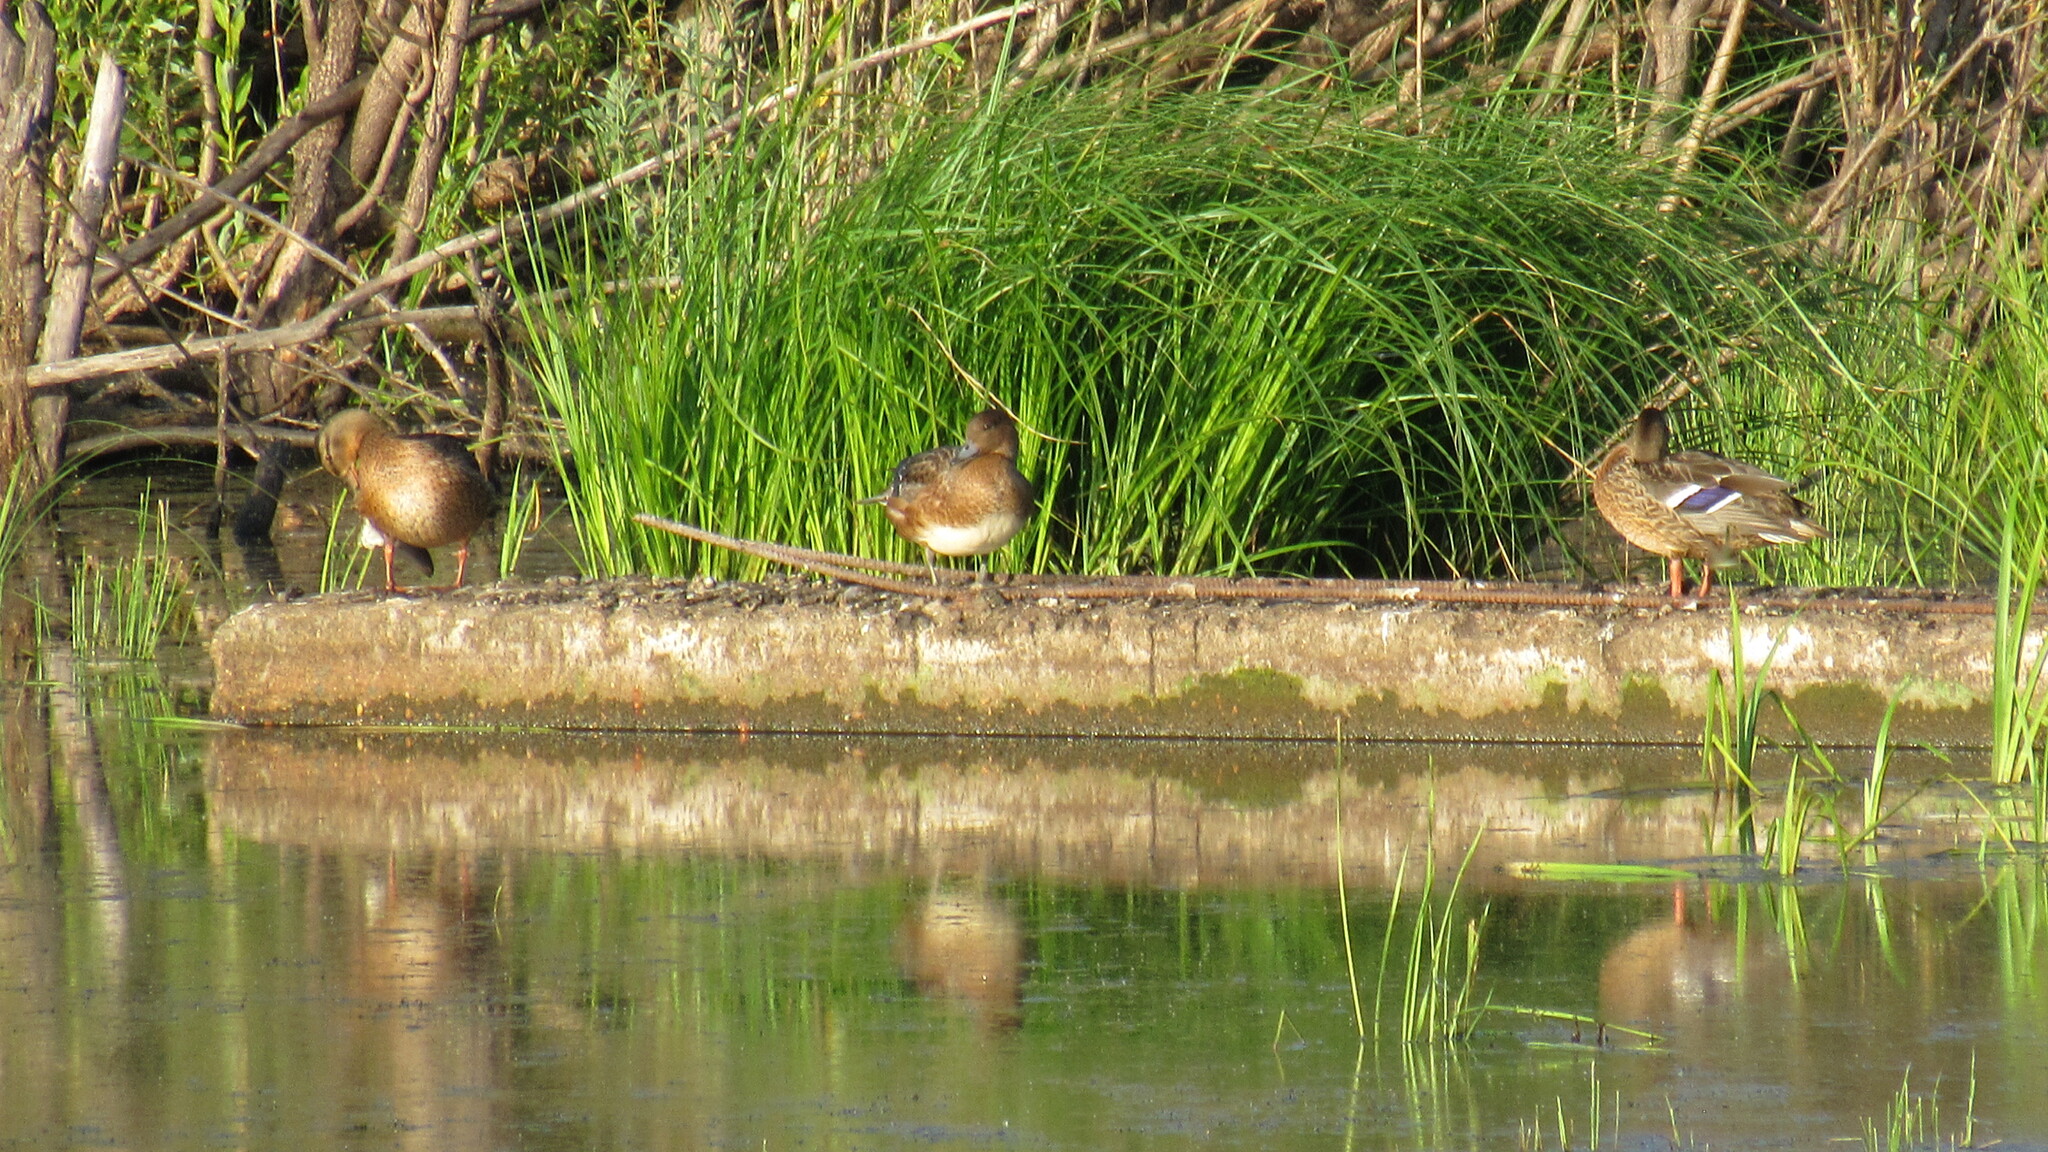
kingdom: Animalia
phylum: Chordata
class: Aves
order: Anseriformes
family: Anatidae
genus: Anas
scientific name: Anas platyrhynchos
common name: Mallard
